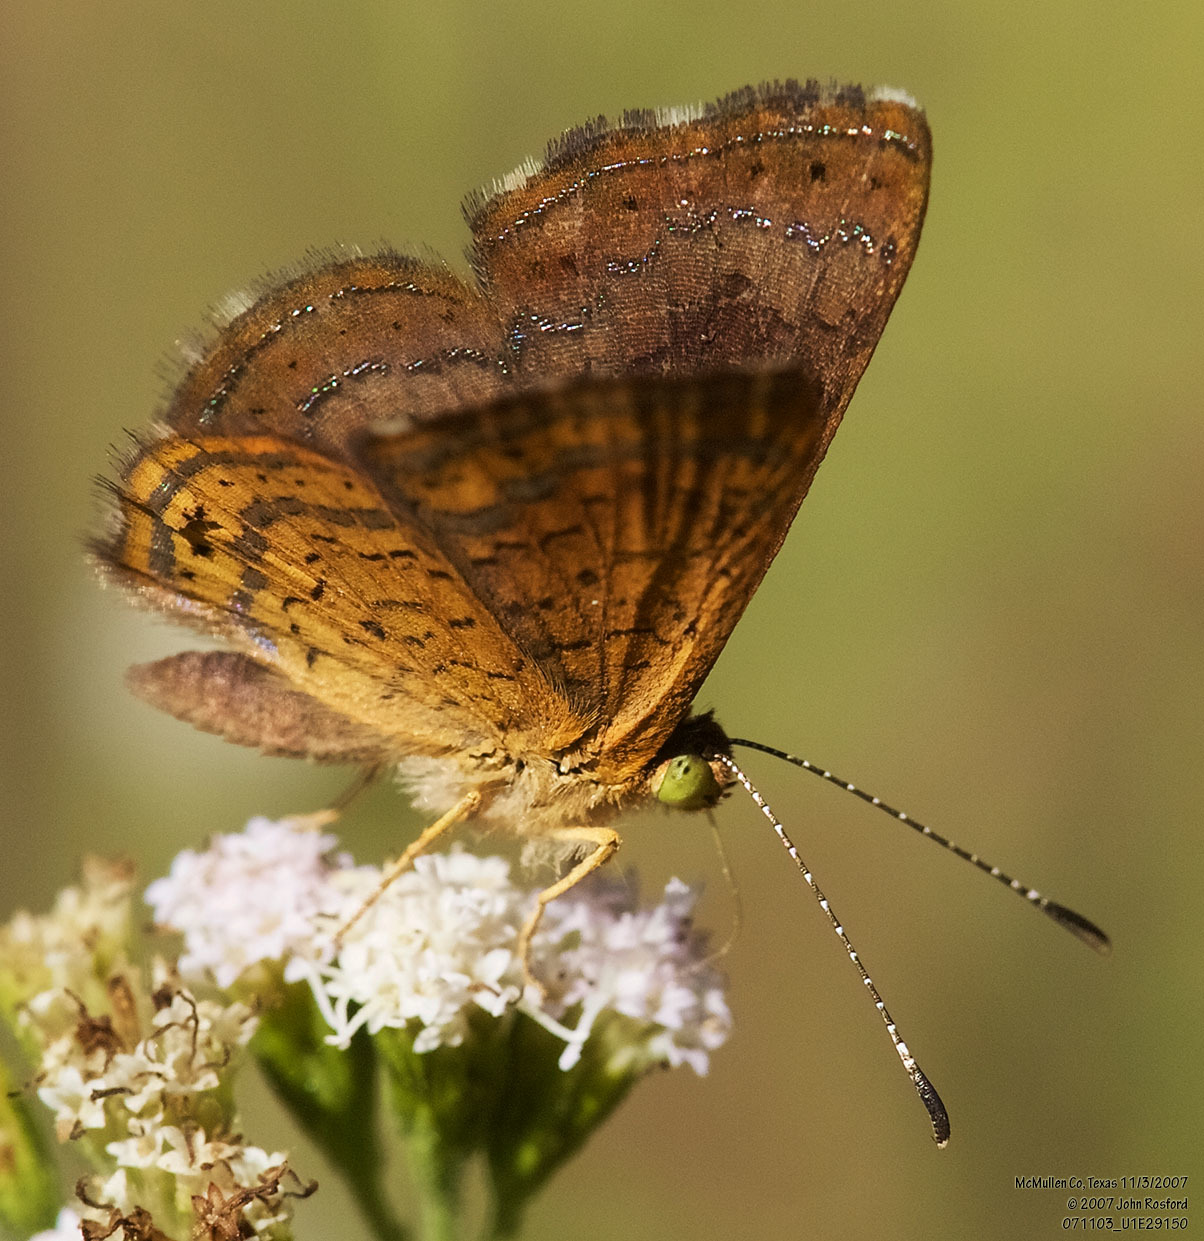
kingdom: Animalia
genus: Calephelis
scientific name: Calephelis nemesis
